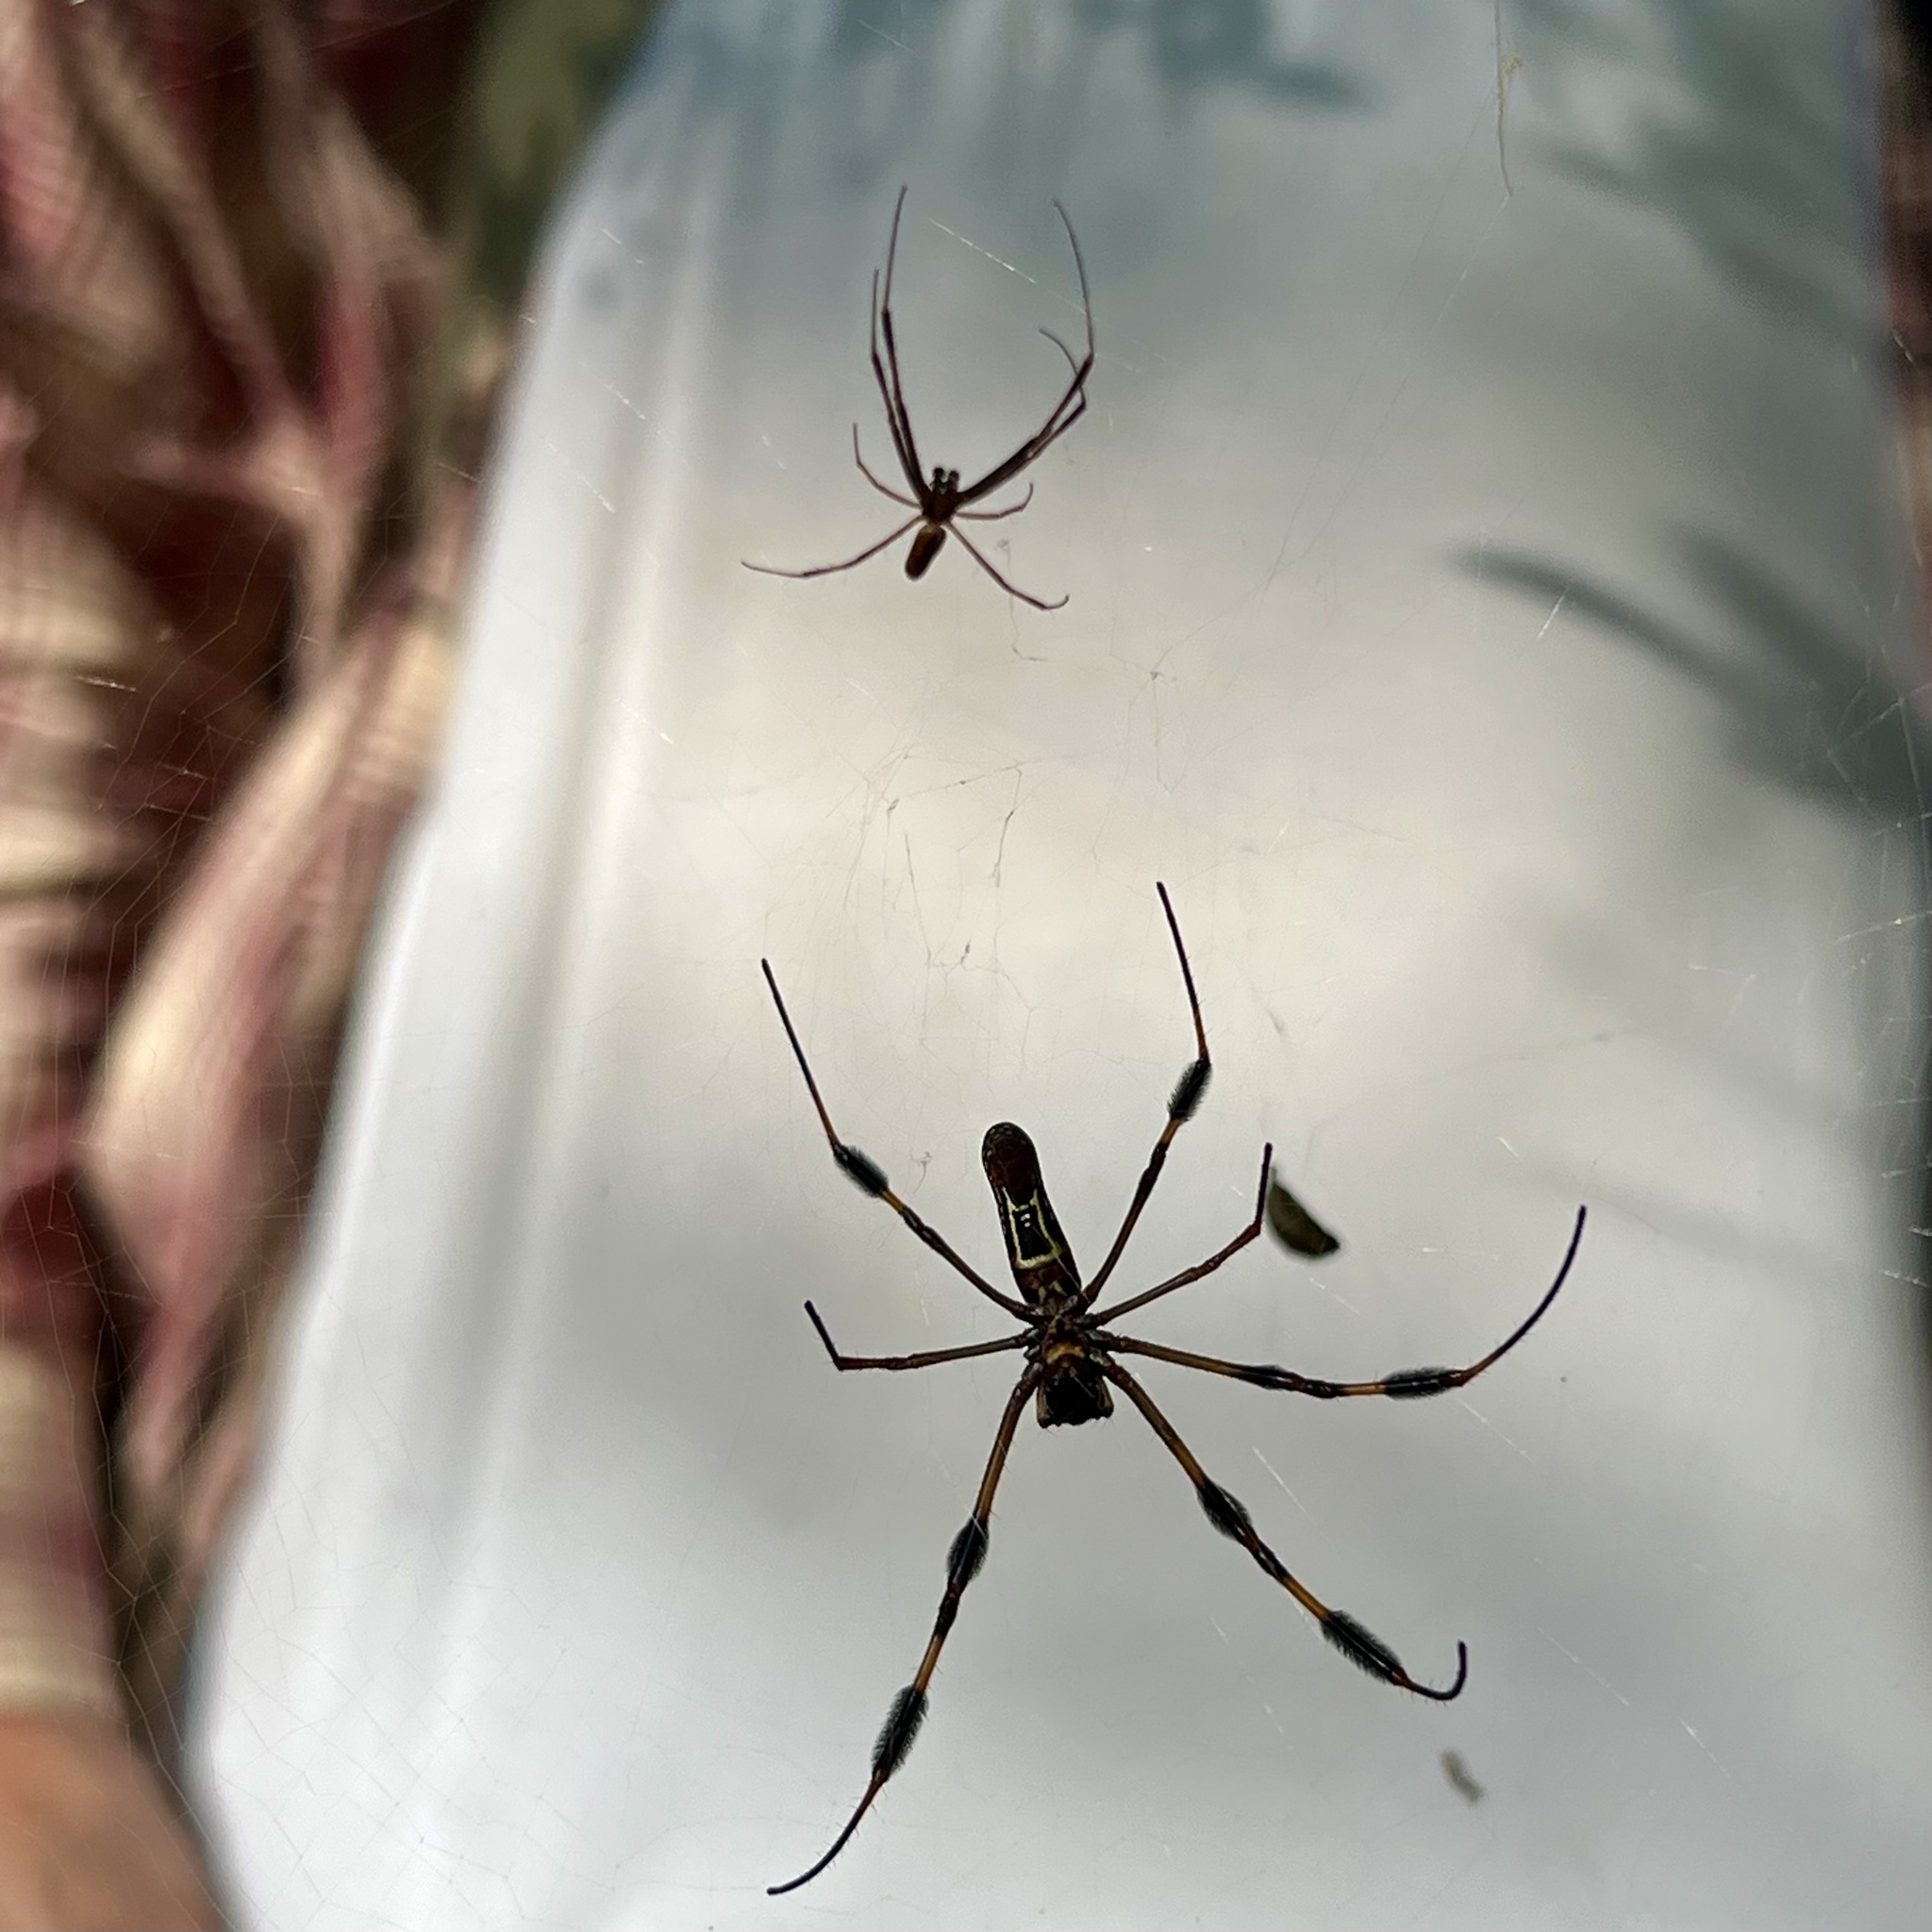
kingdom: Animalia
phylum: Arthropoda
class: Arachnida
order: Araneae
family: Araneidae
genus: Trichonephila
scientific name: Trichonephila clavipes
